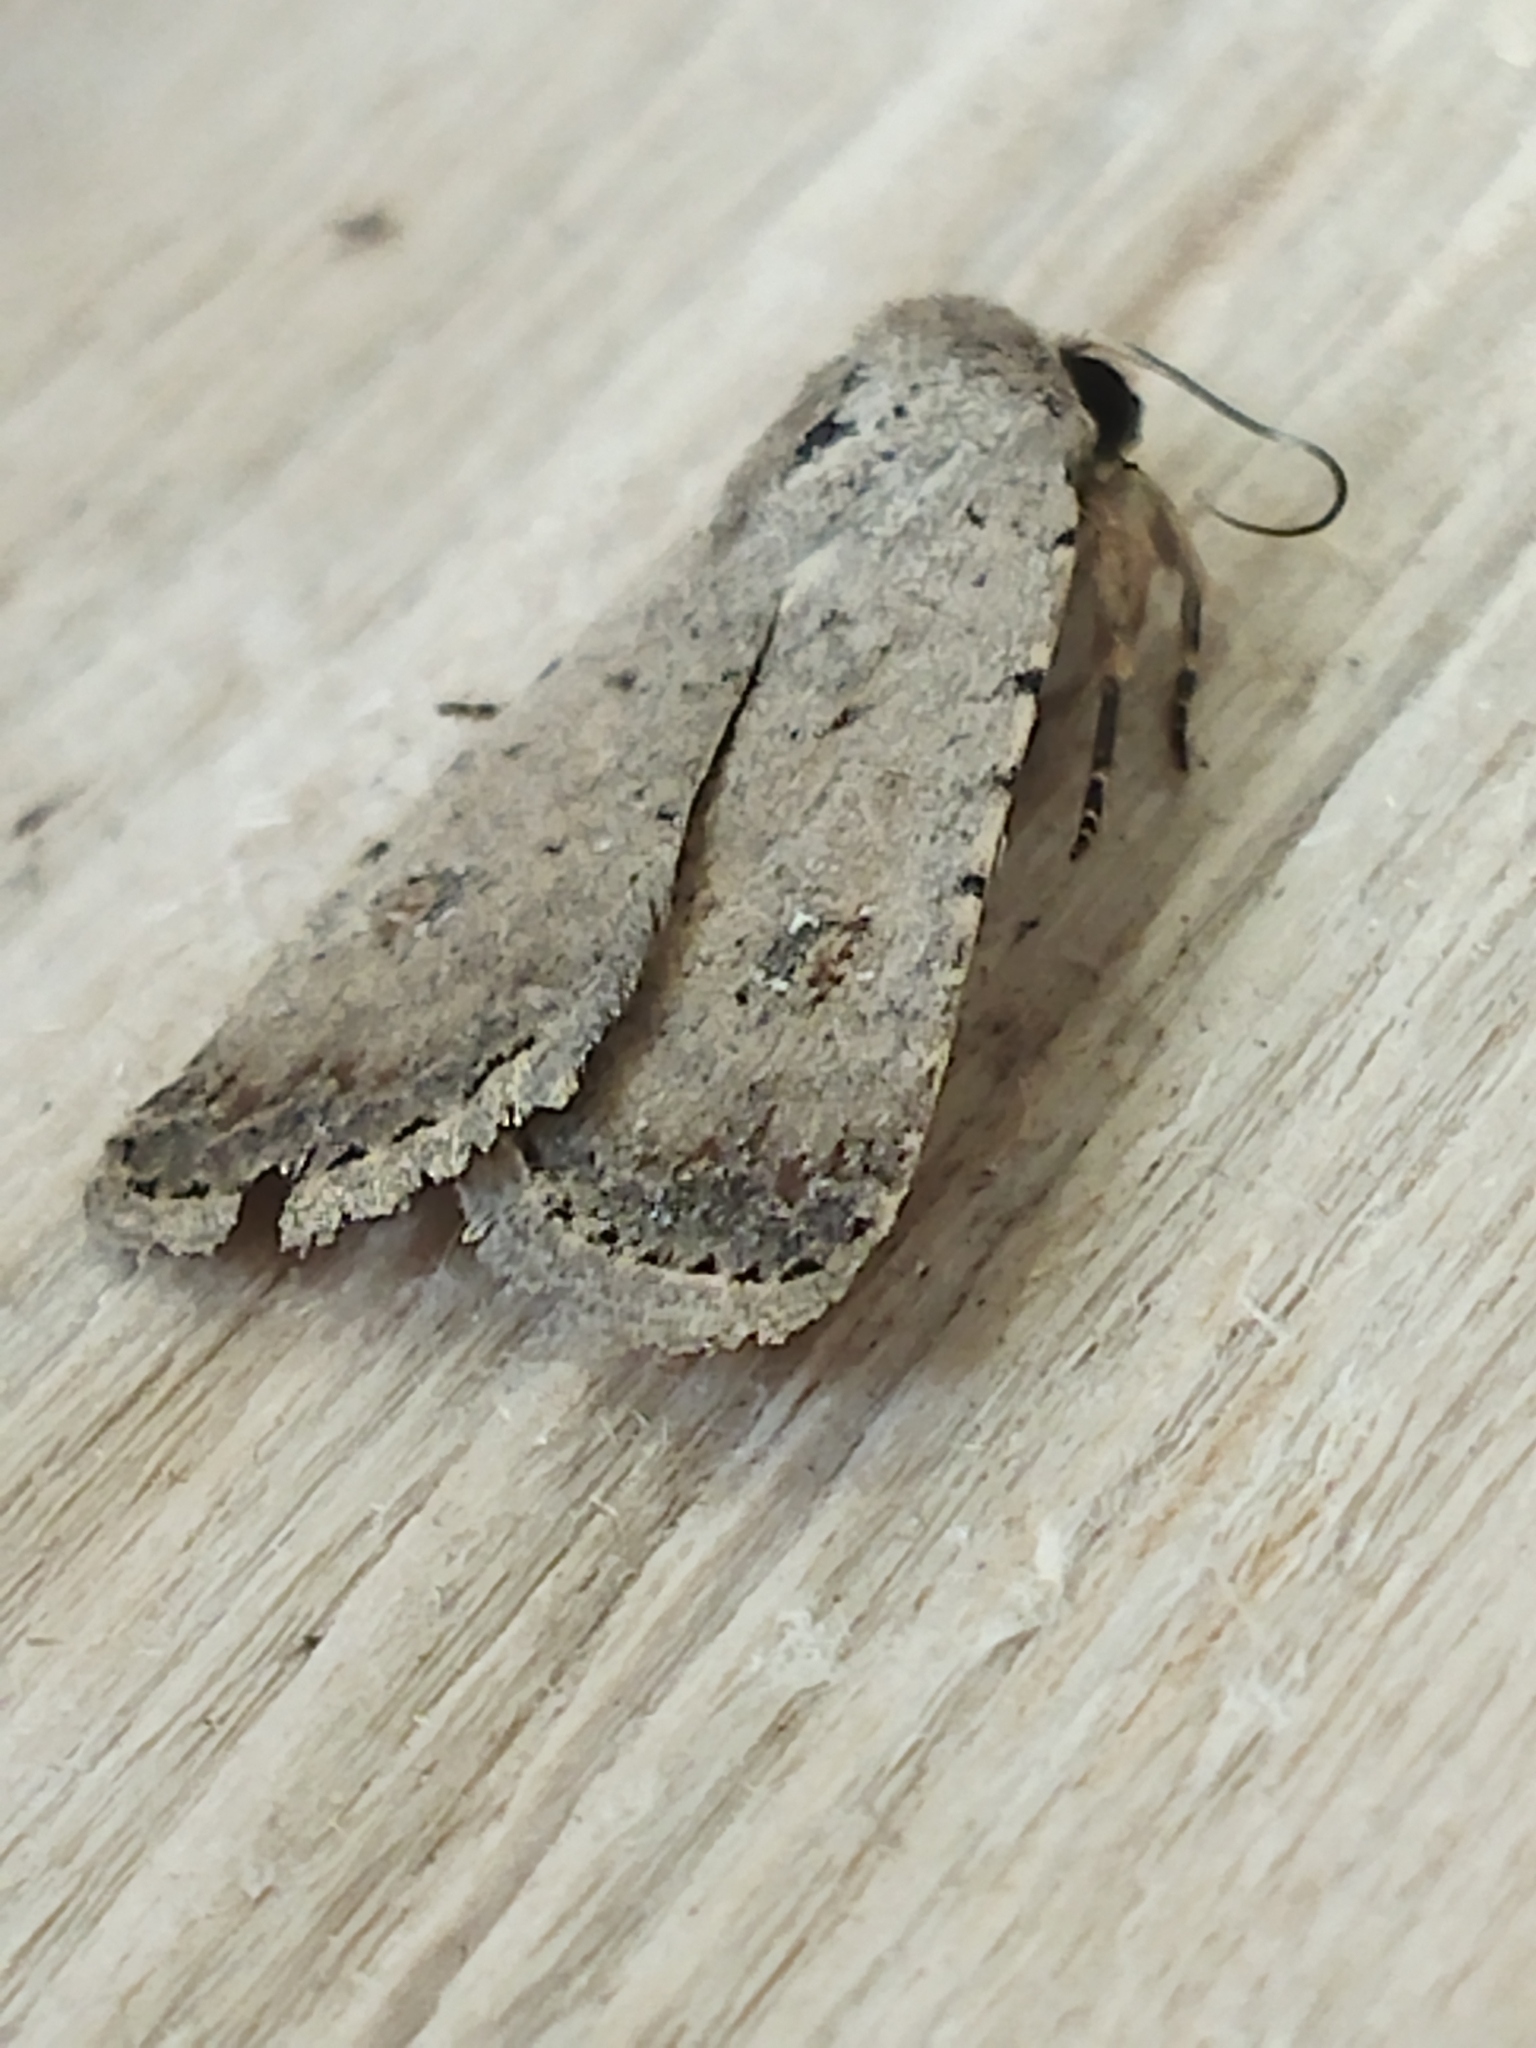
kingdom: Animalia
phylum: Arthropoda
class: Insecta
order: Lepidoptera
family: Noctuidae
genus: Caradrina
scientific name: Caradrina clavipalpis
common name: Pale mottled willow
